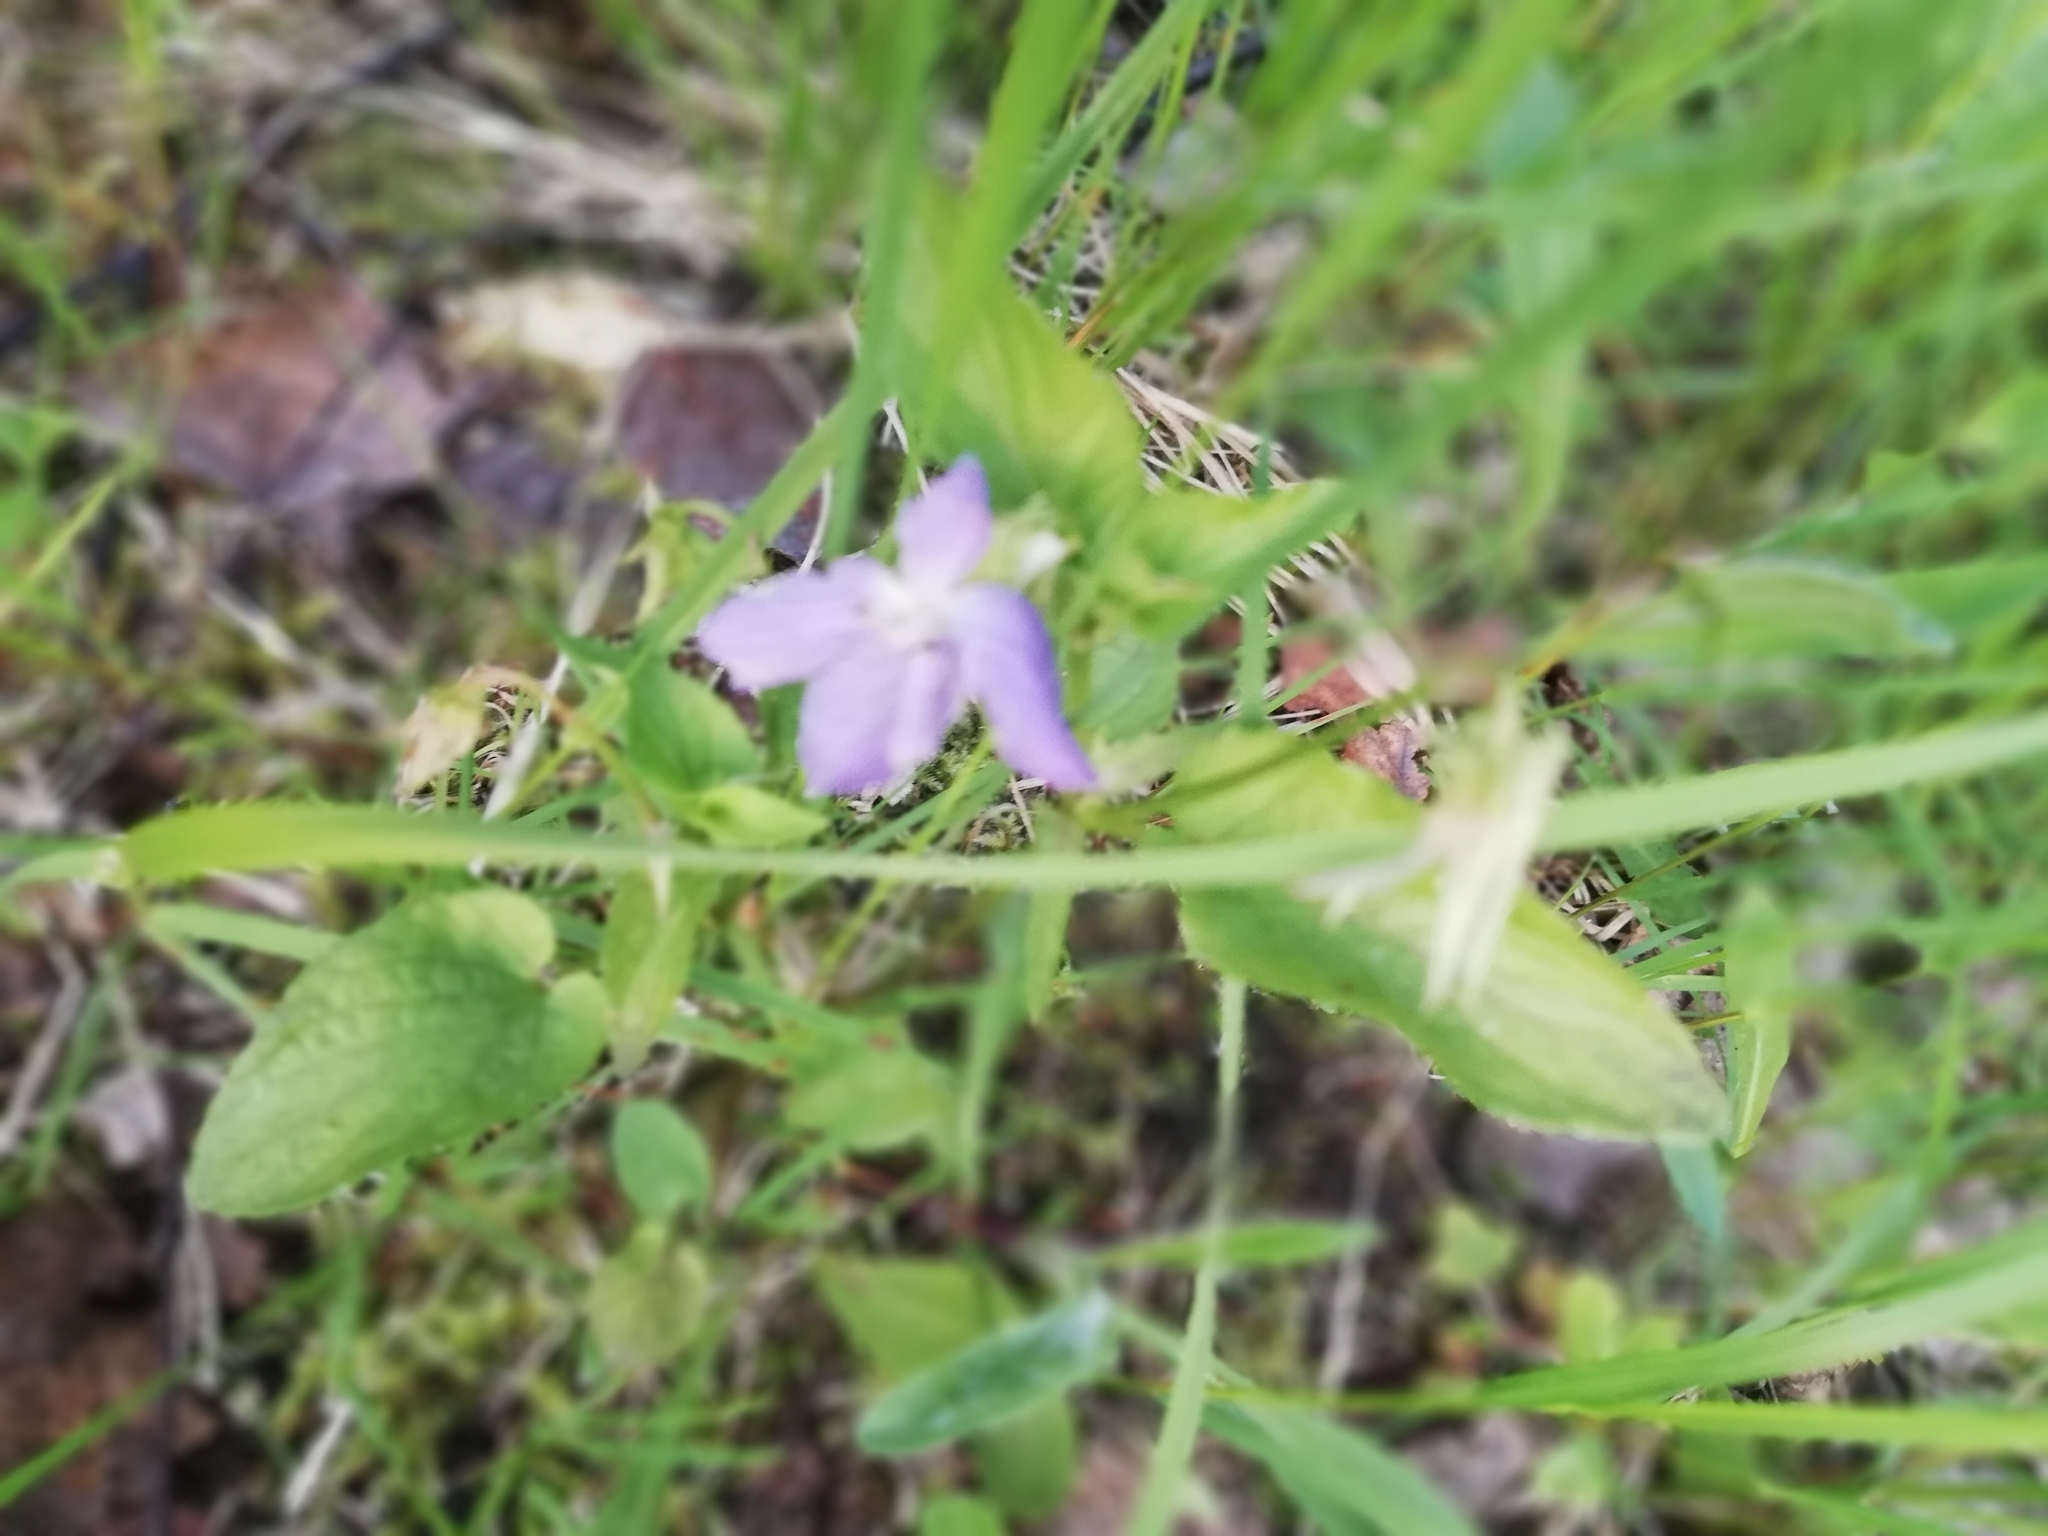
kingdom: Plantae
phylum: Tracheophyta
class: Magnoliopsida
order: Malpighiales
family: Violaceae
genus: Viola
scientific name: Viola canina
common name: Heath dog-violet
